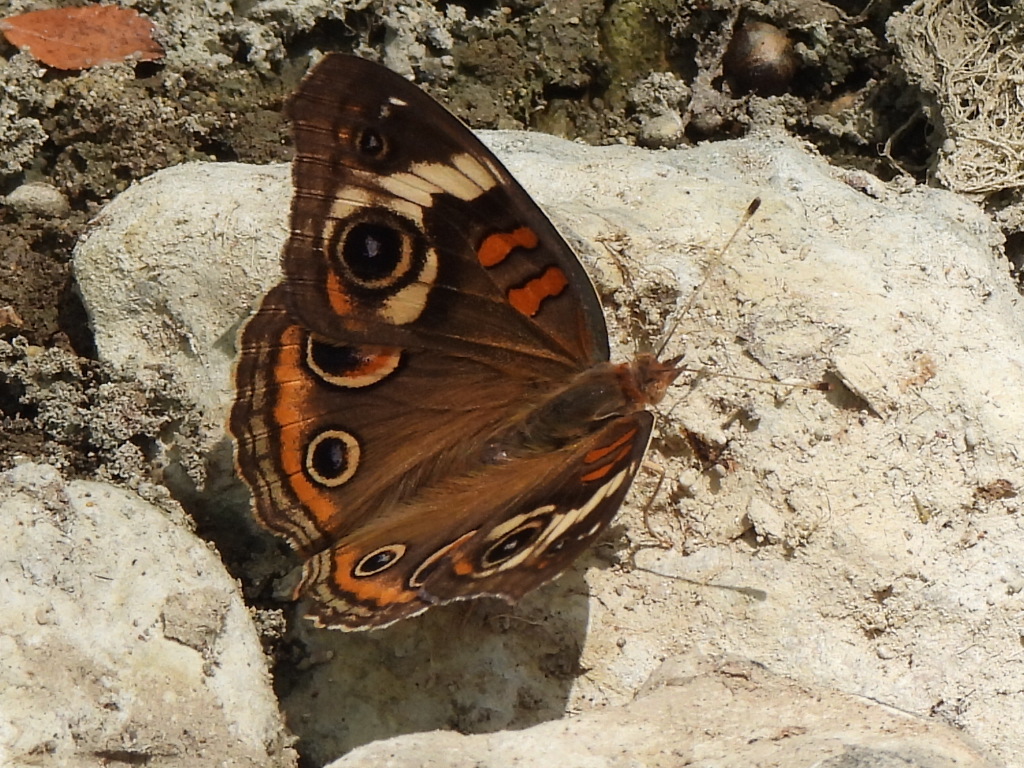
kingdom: Animalia
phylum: Arthropoda
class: Insecta
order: Lepidoptera
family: Nymphalidae
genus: Junonia
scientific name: Junonia coenia
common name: Common buckeye
